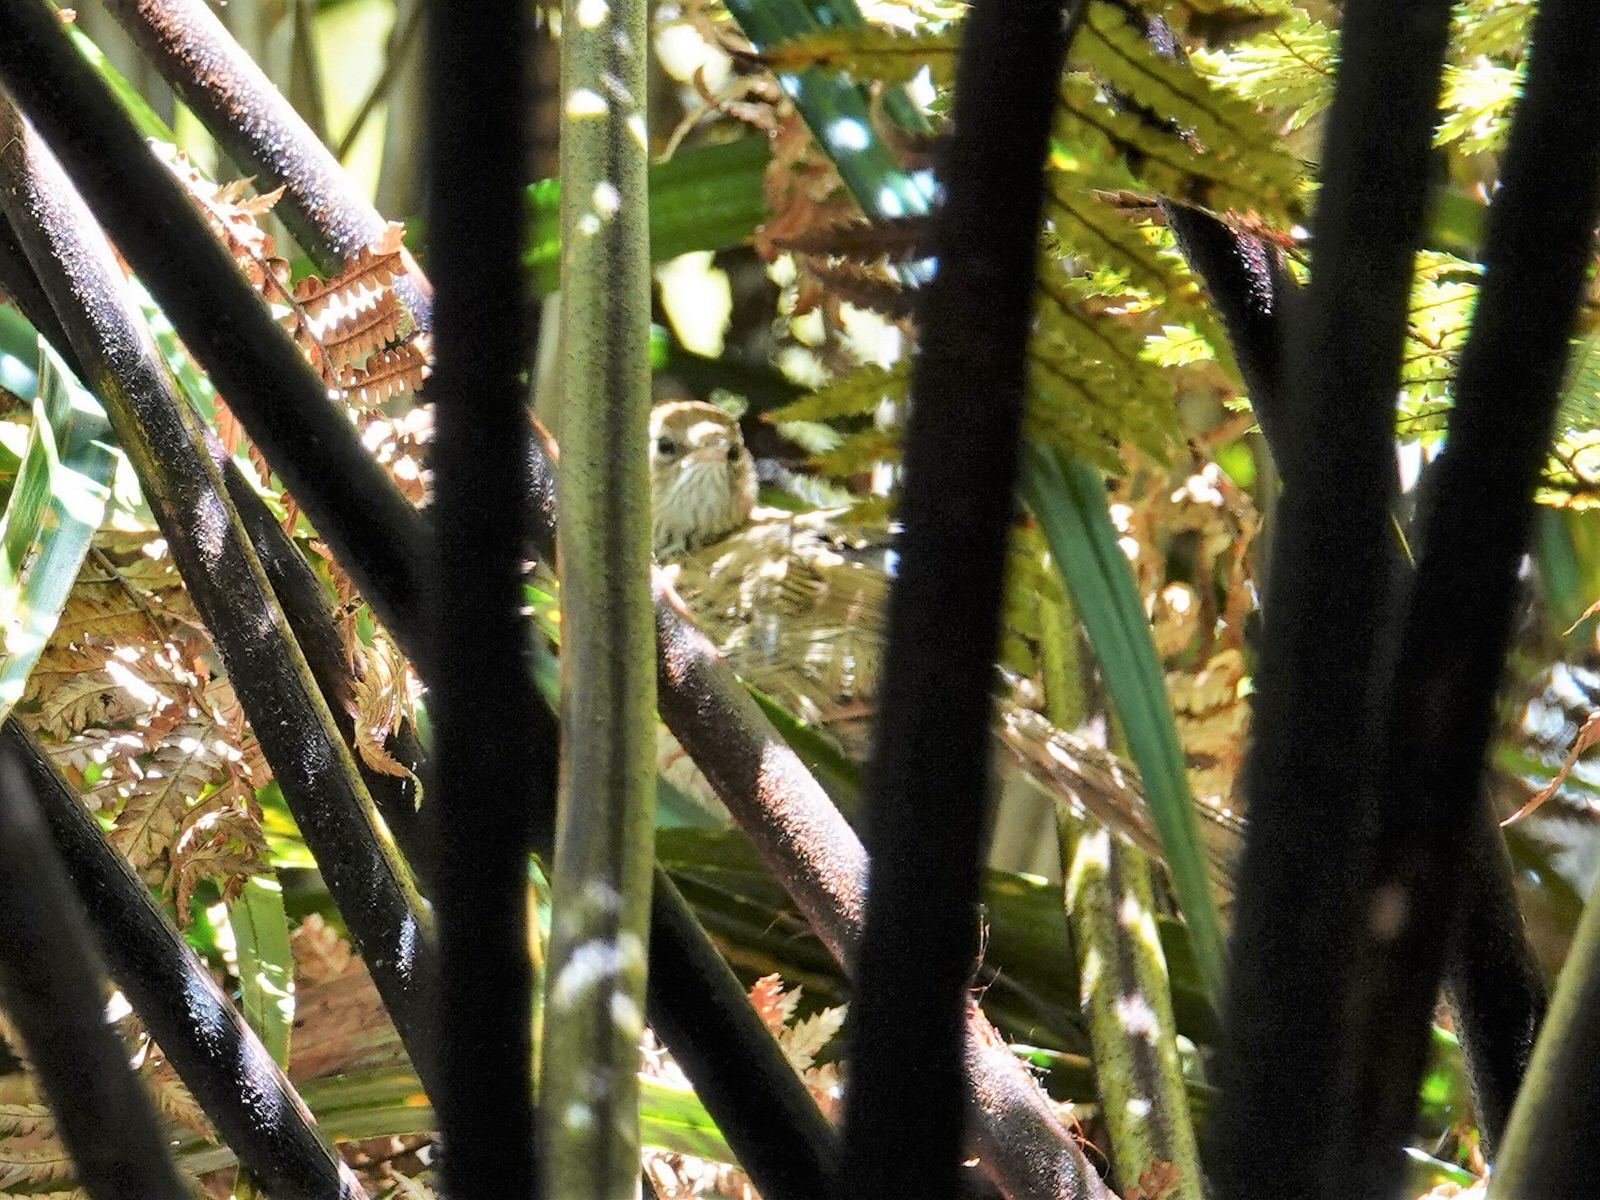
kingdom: Animalia
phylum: Chordata
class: Aves
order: Passeriformes
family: Locustellidae
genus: Megalurus
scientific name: Megalurus punctatus
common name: New zealand fernbird
